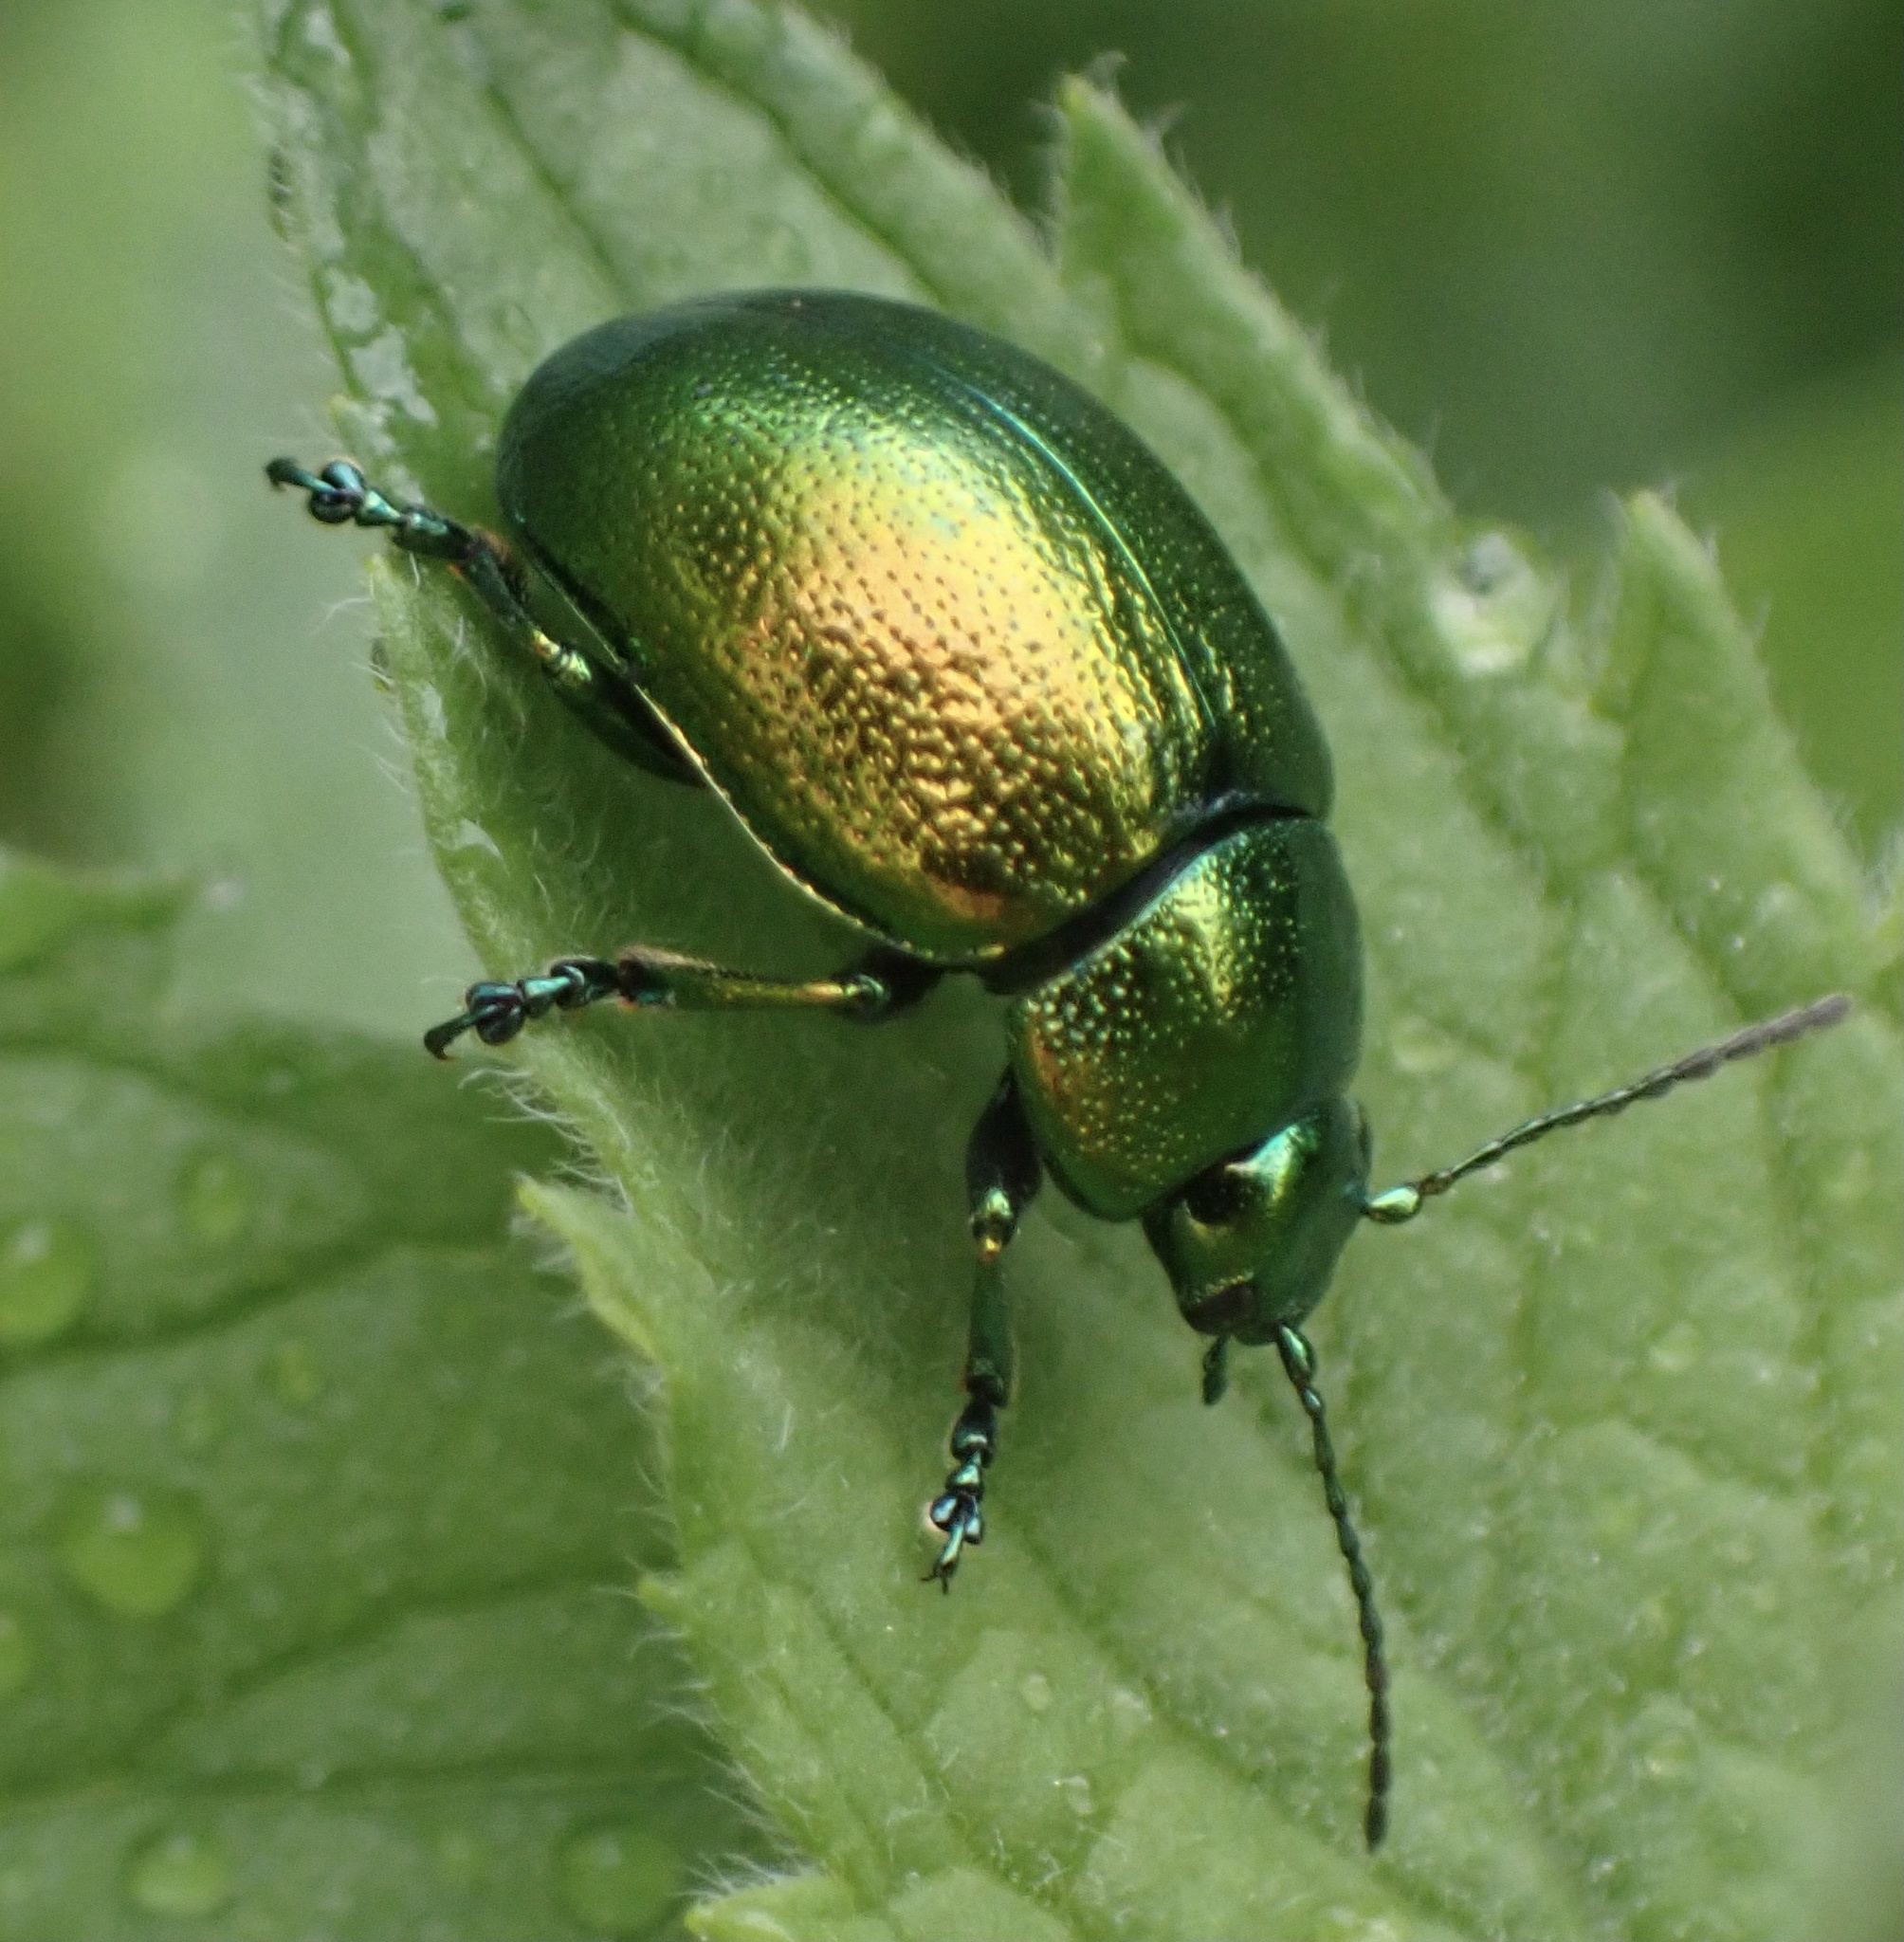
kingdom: Animalia
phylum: Arthropoda
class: Insecta
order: Coleoptera
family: Chrysomelidae
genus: Chrysolina
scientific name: Chrysolina herbacea
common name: Mint leaf beatle
